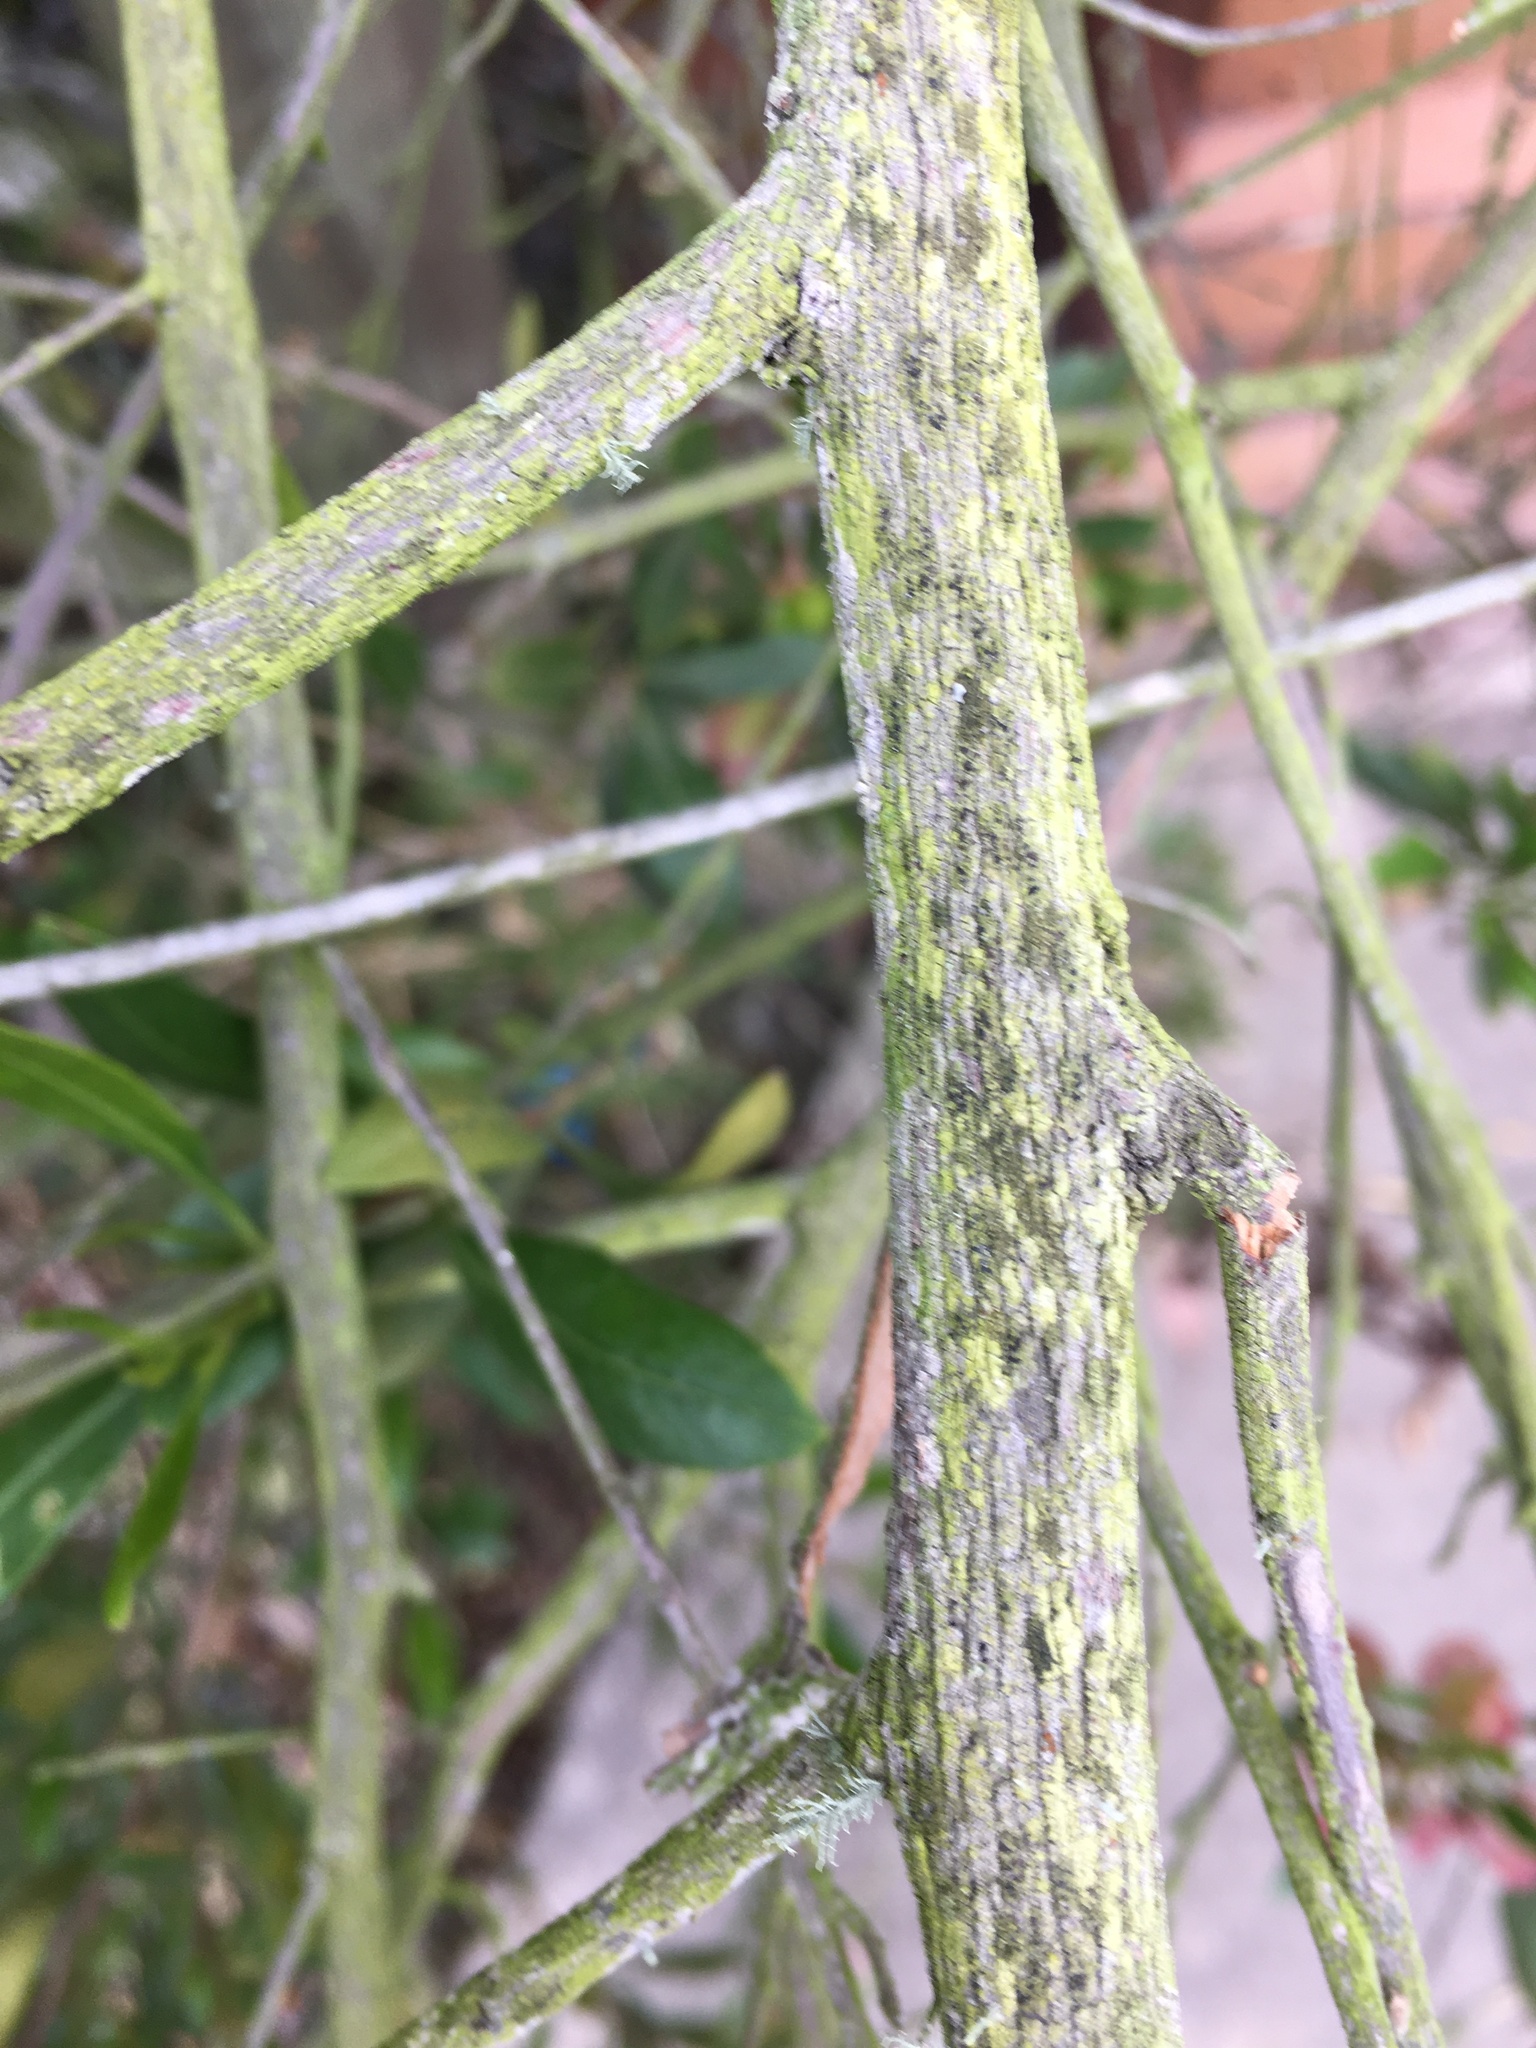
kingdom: Plantae
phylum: Tracheophyta
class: Magnoliopsida
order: Sapindales
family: Sapindaceae
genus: Dodonaea
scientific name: Dodonaea viscosa
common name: Hopbush
